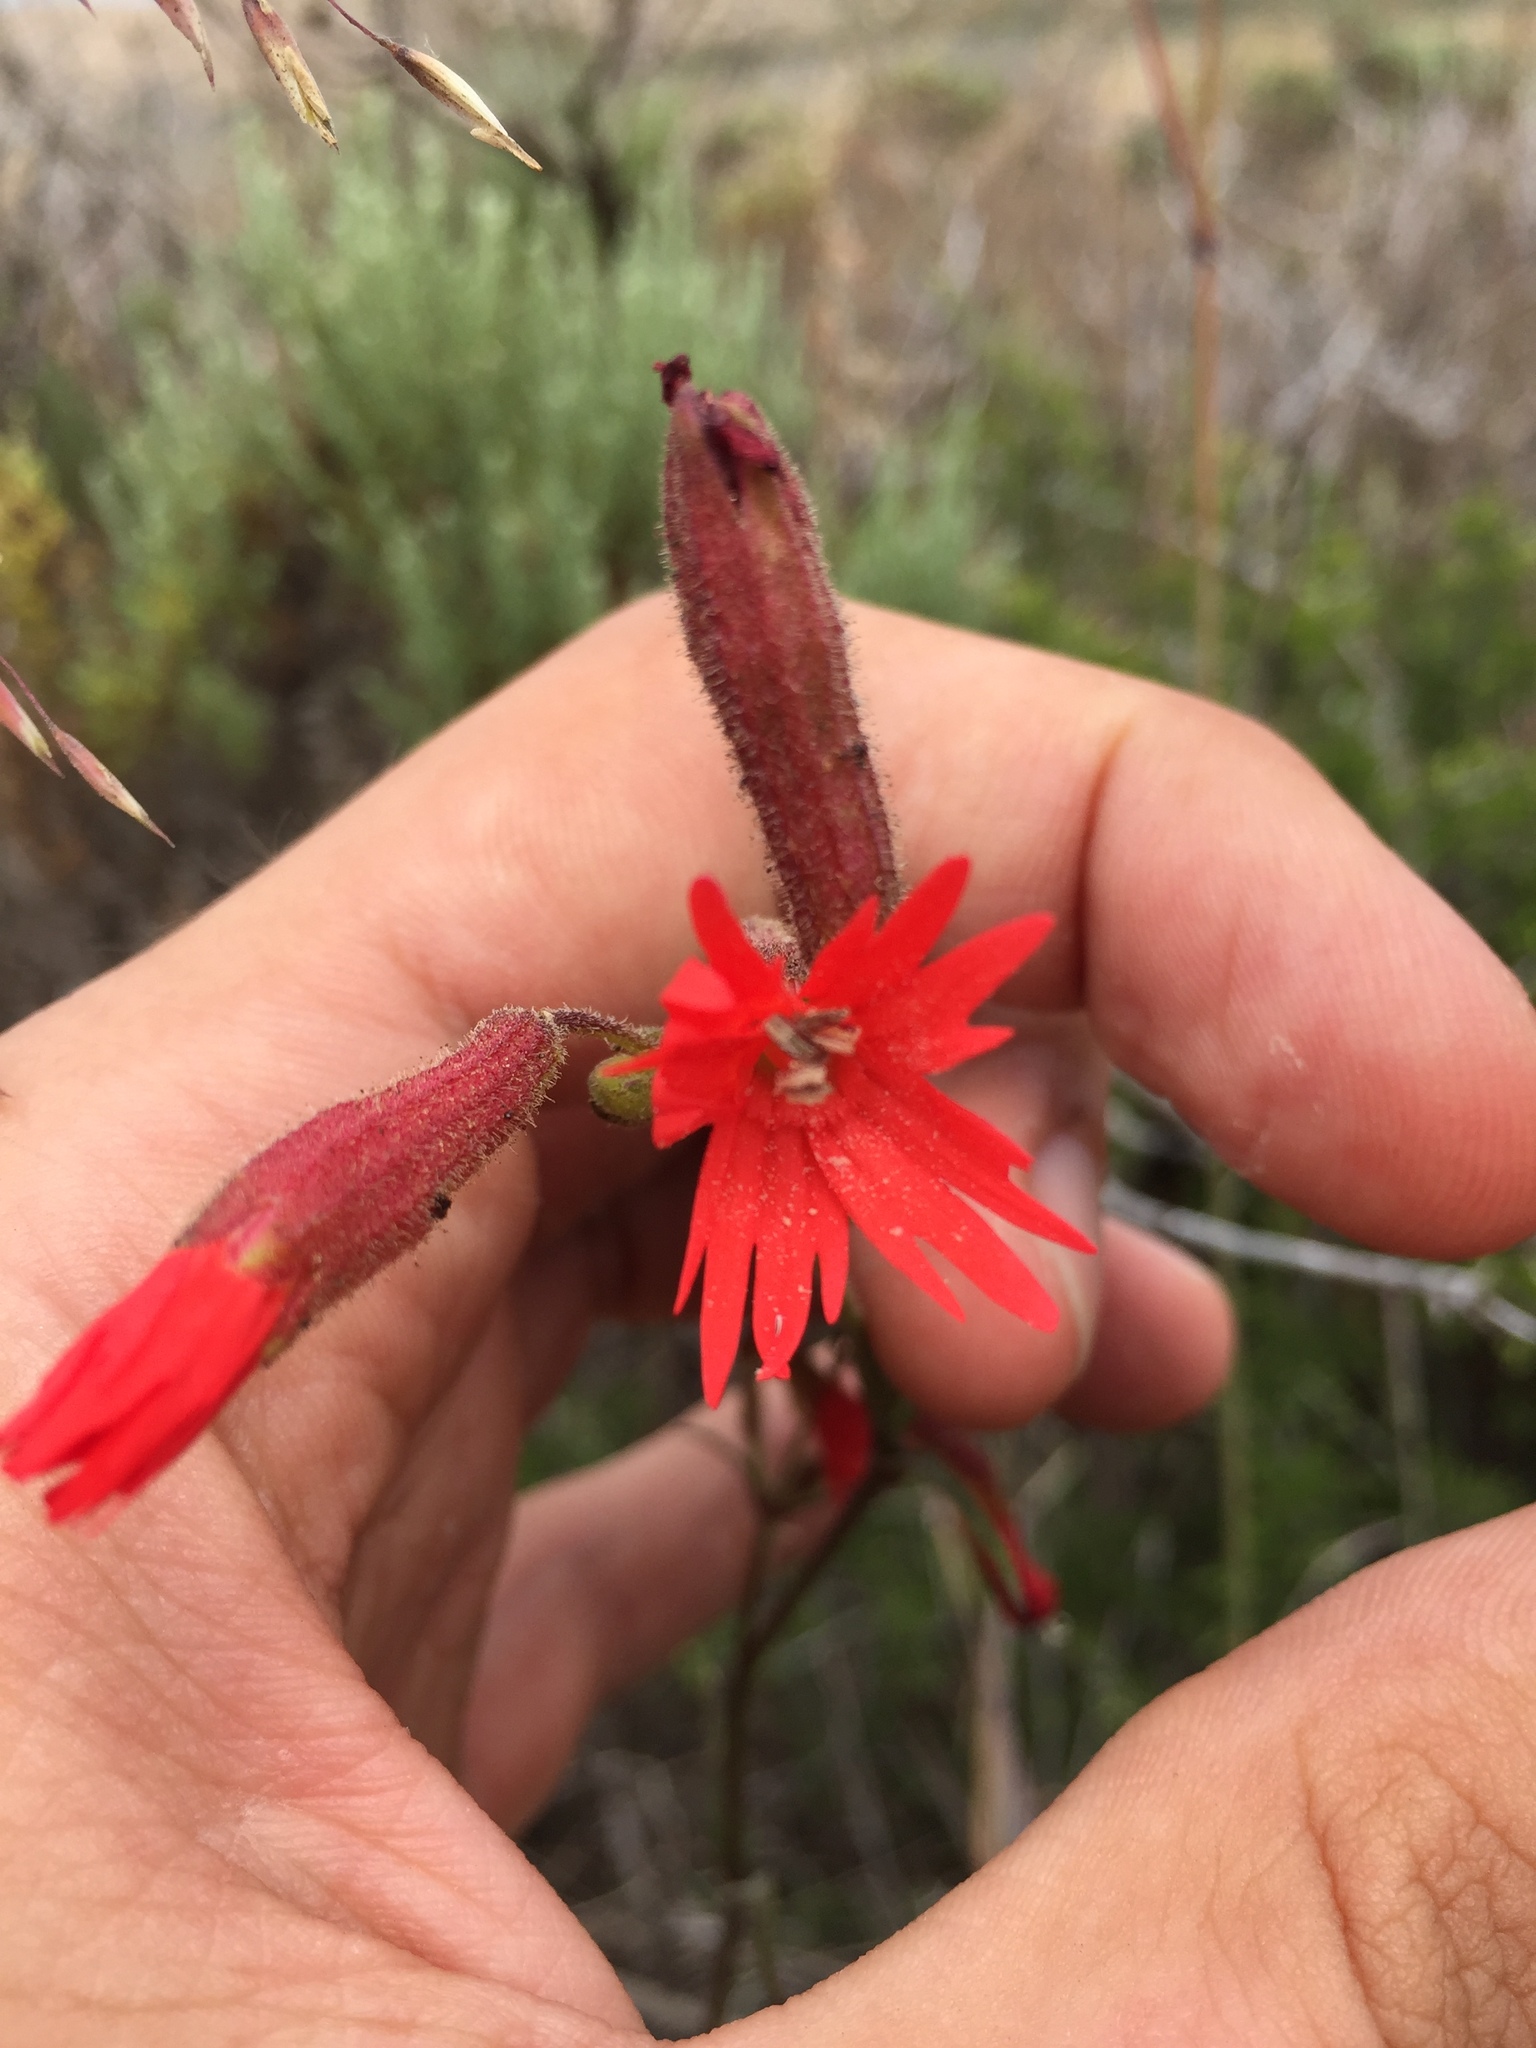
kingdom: Plantae
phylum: Tracheophyta
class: Magnoliopsida
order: Caryophyllales
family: Caryophyllaceae
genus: Silene
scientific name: Silene laciniata
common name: Indian-pink
